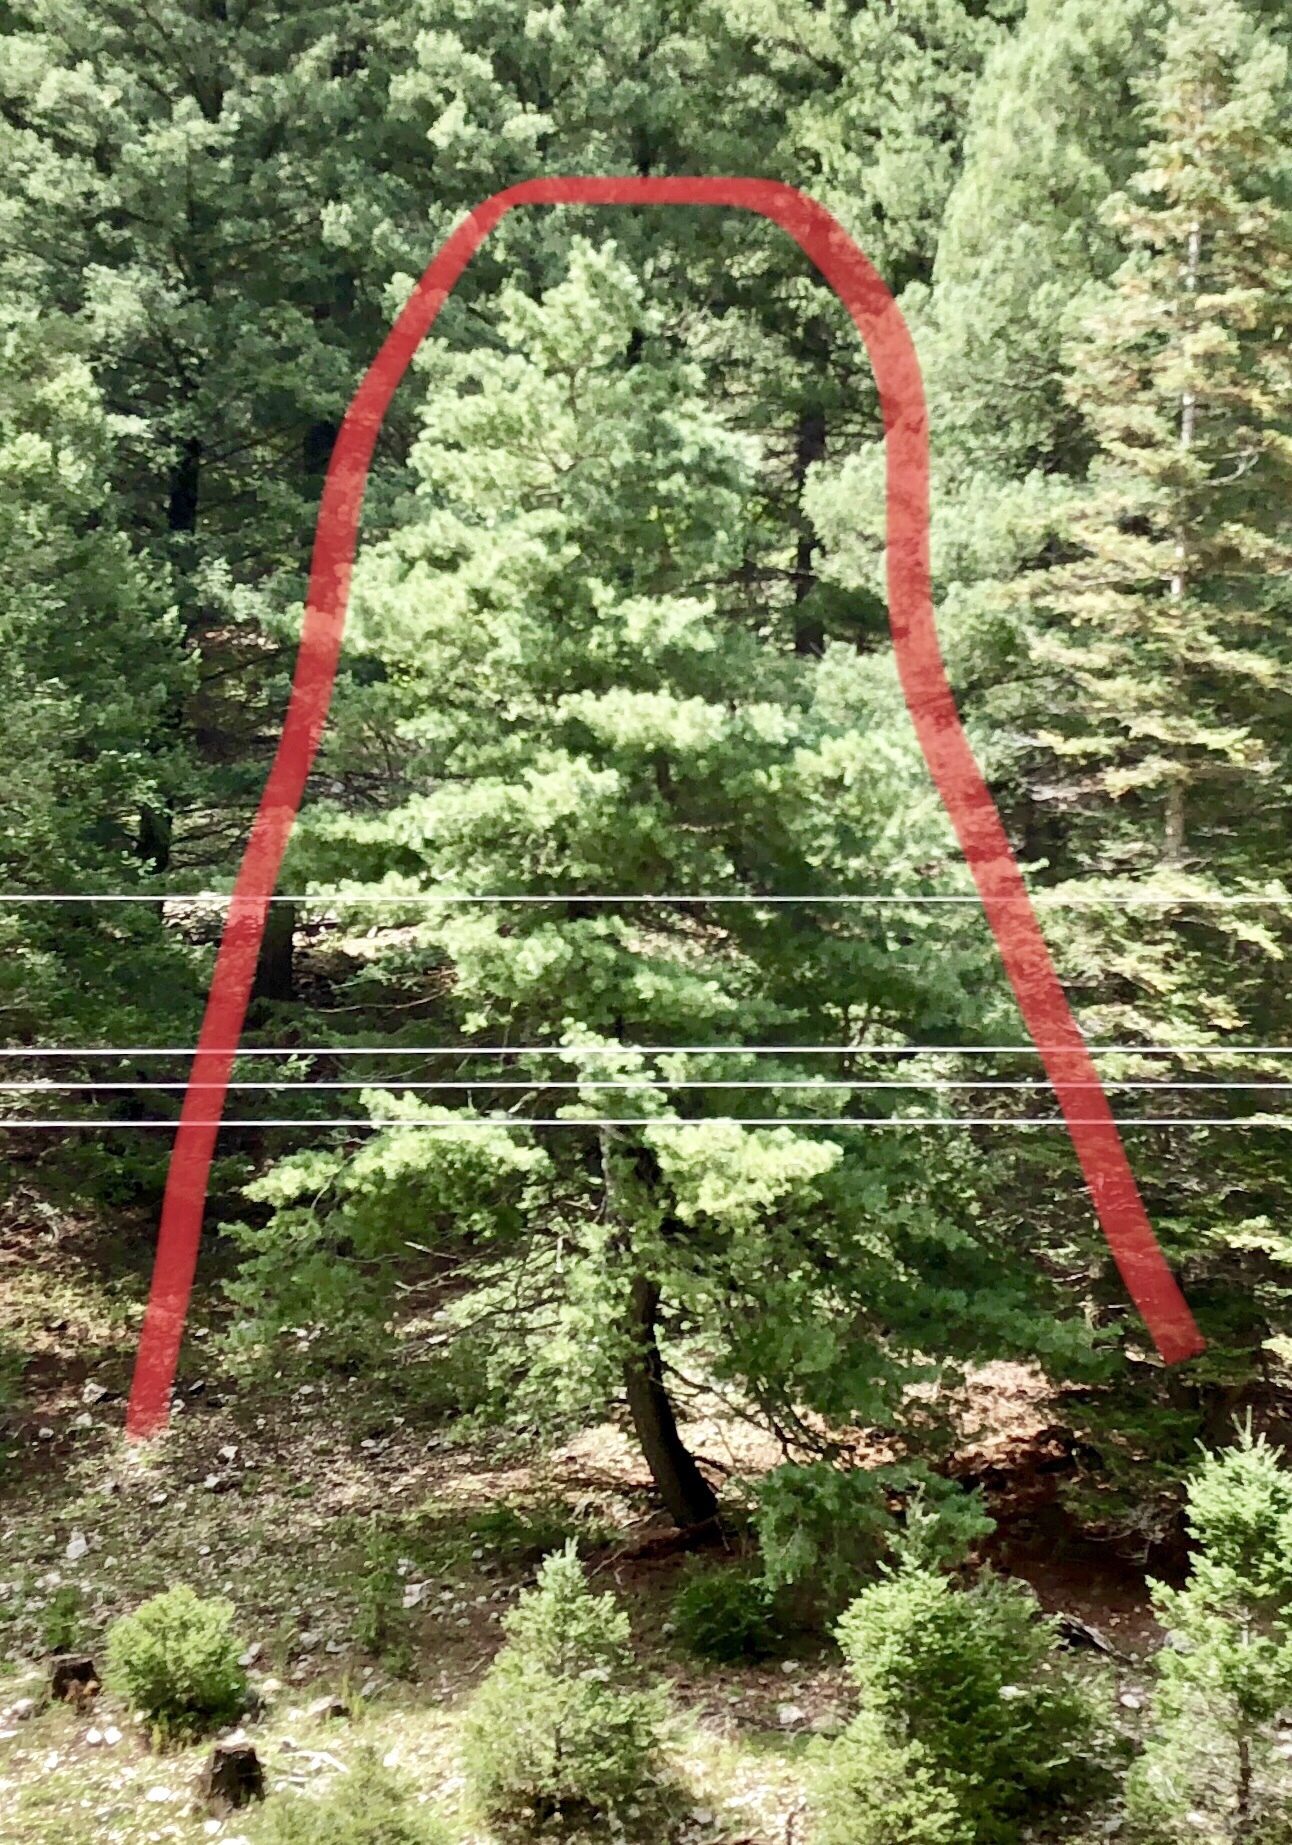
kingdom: Plantae
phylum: Tracheophyta
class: Pinopsida
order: Pinales
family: Pinaceae
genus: Pinus
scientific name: Pinus ponderosa
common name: Western yellow-pine
